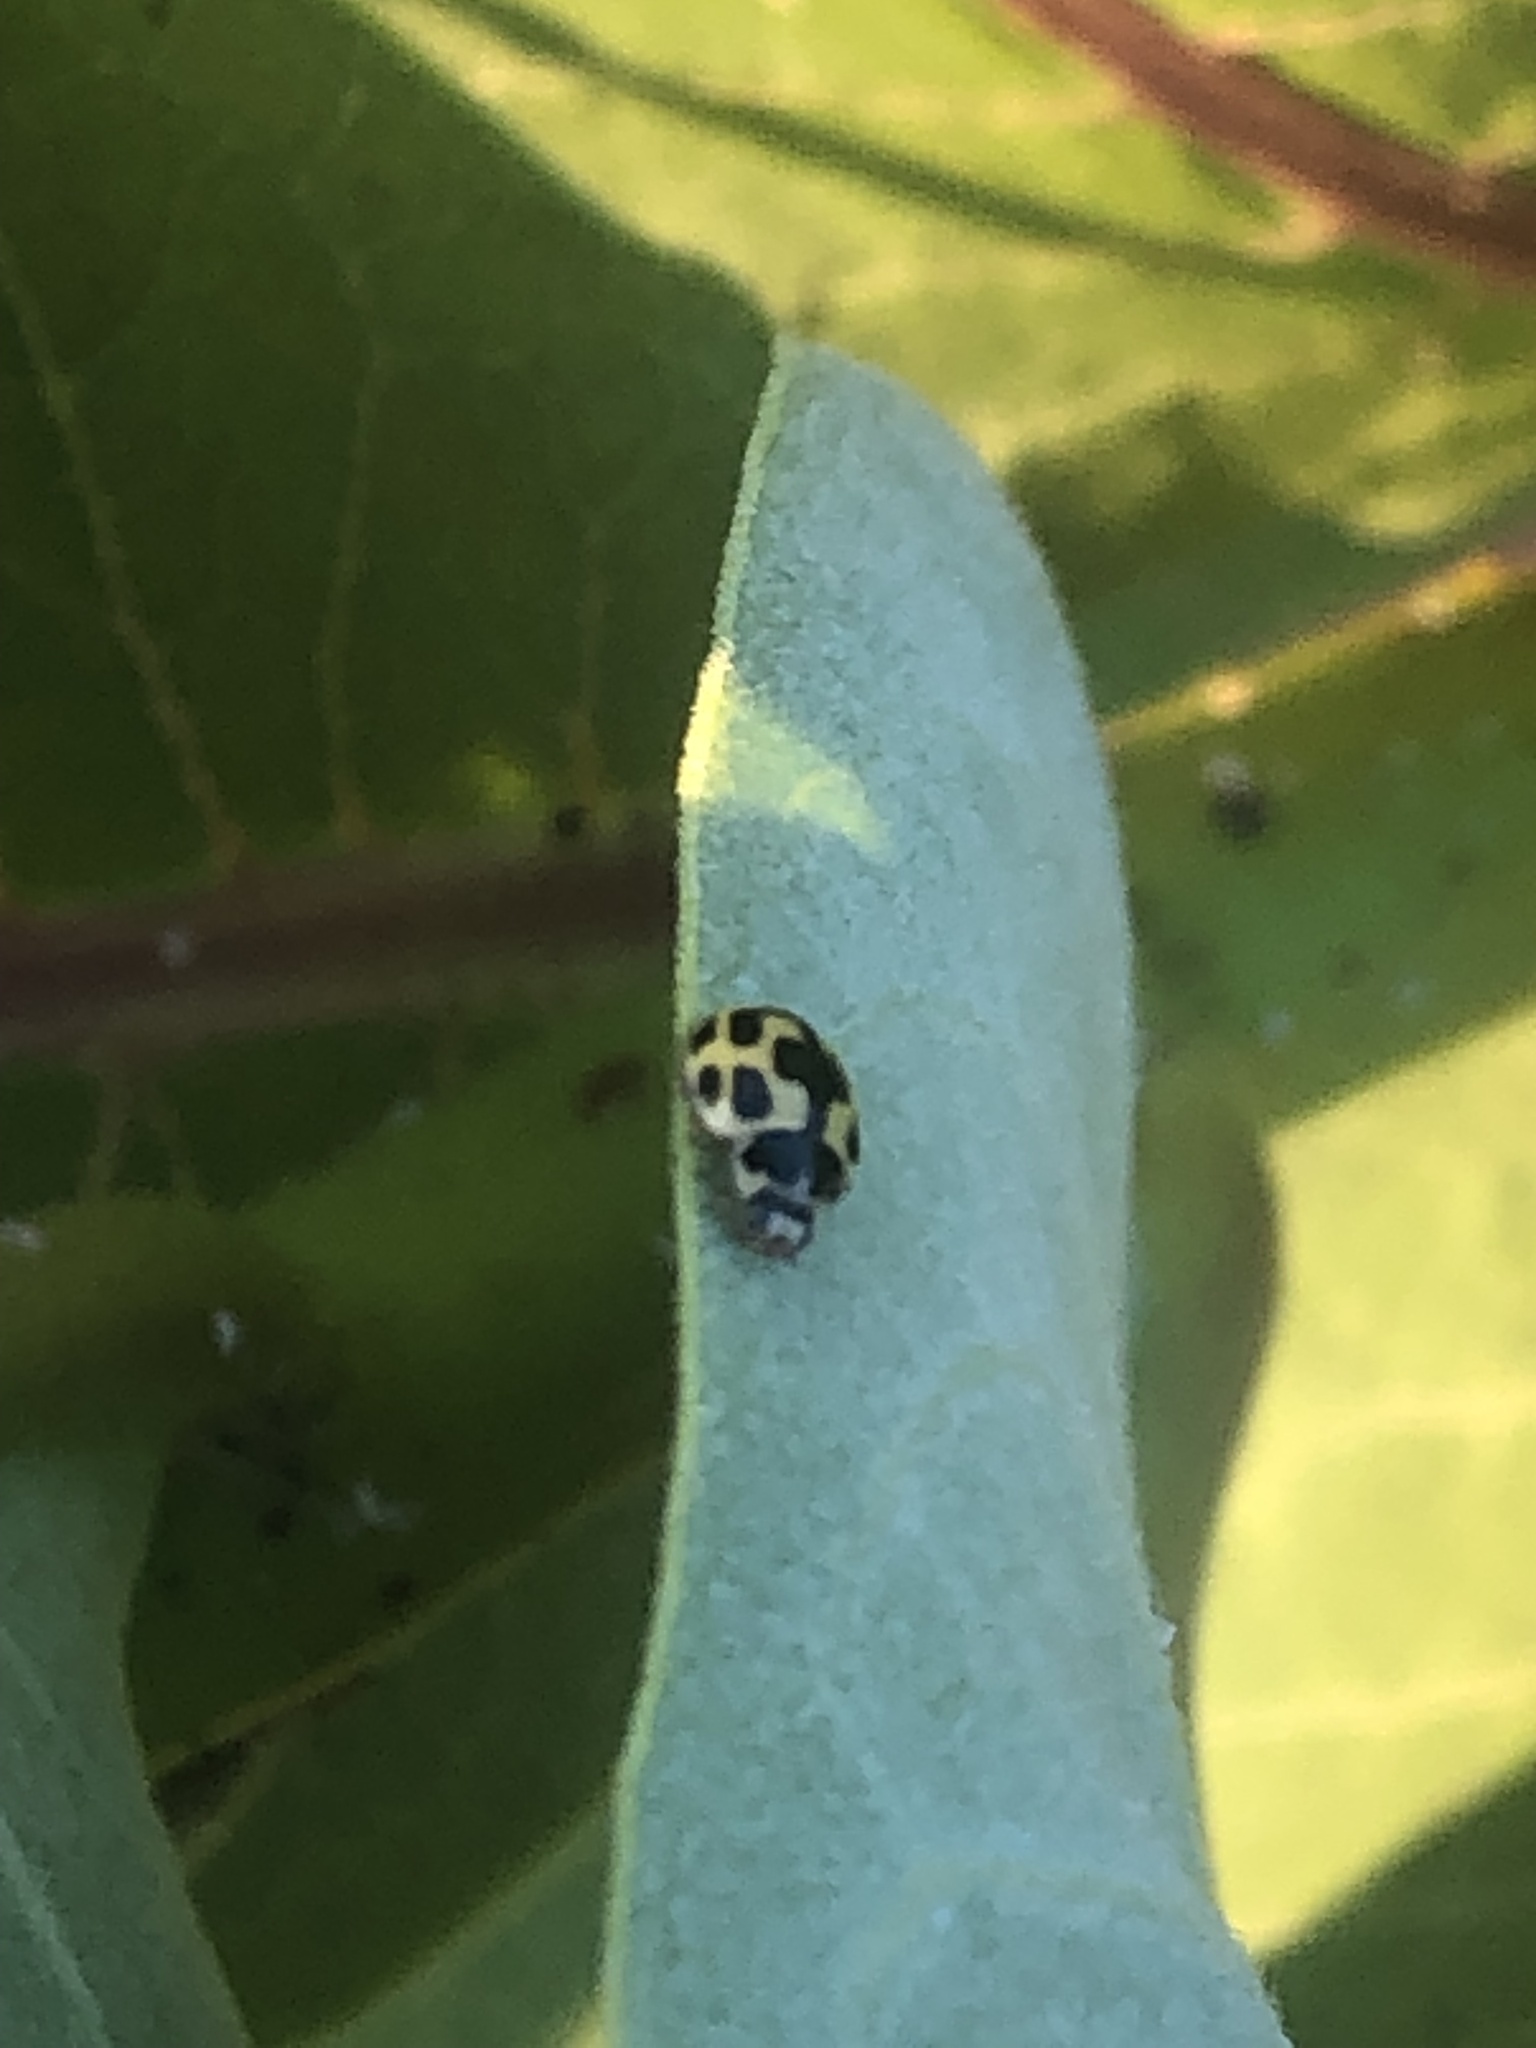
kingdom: Animalia
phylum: Arthropoda
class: Insecta
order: Coleoptera
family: Coccinellidae
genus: Propylaea
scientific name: Propylaea quatuordecimpunctata
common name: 14-spotted ladybird beetle
